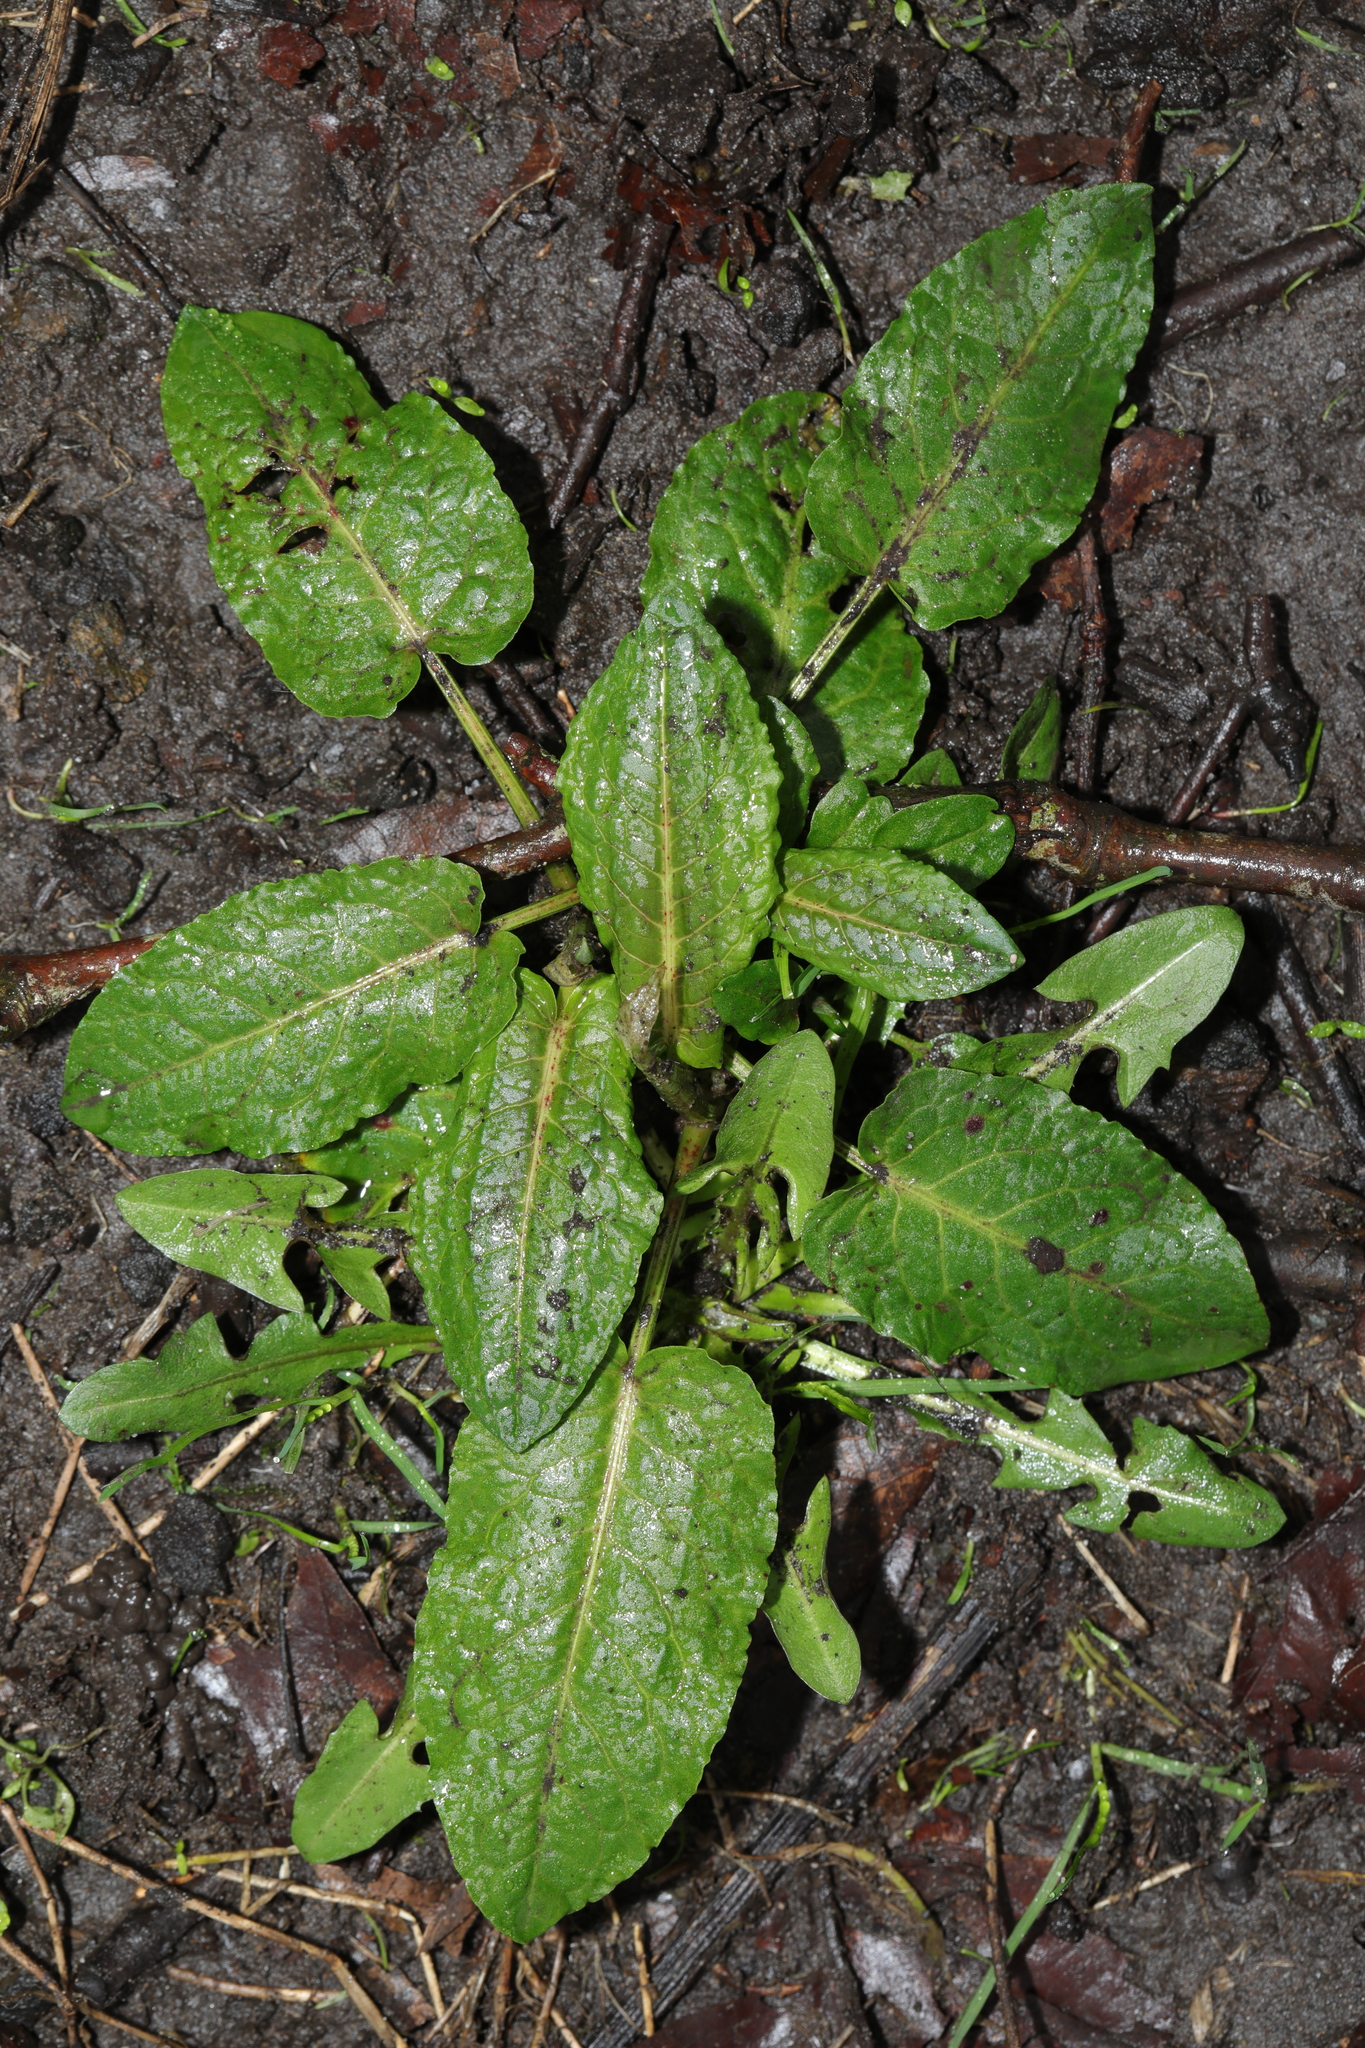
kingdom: Plantae
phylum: Tracheophyta
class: Magnoliopsida
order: Caryophyllales
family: Polygonaceae
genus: Rumex
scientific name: Rumex obtusifolius
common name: Bitter dock
